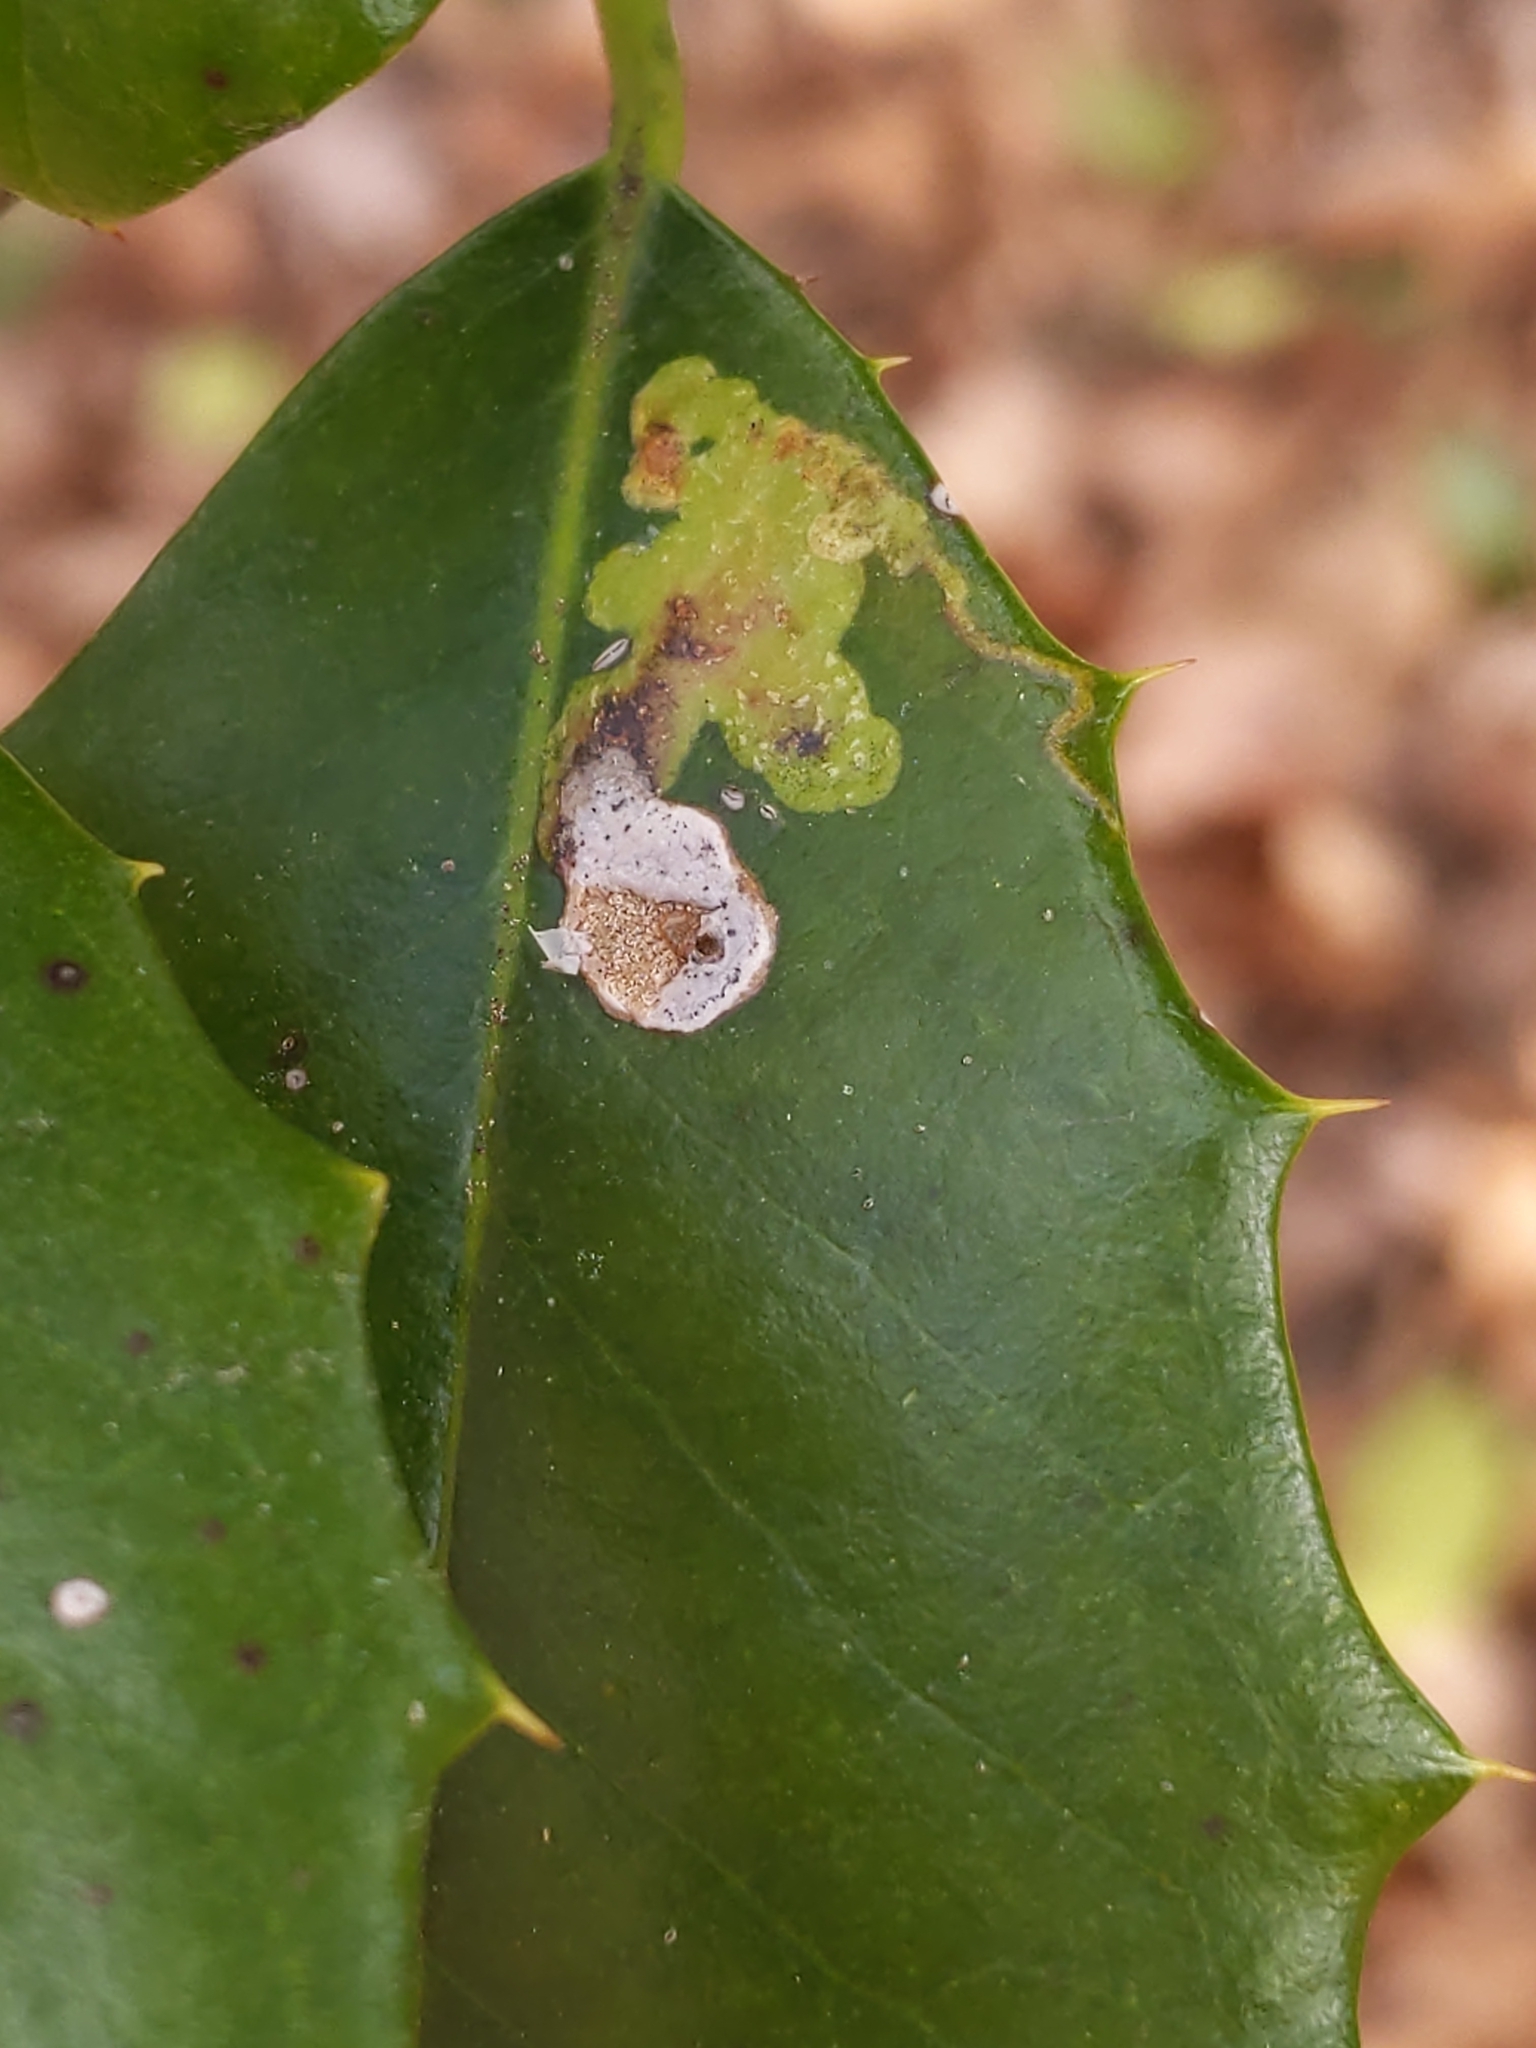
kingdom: Animalia
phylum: Arthropoda
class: Insecta
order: Diptera
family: Agromyzidae
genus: Phytomyza
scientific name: Phytomyza ilicicola
